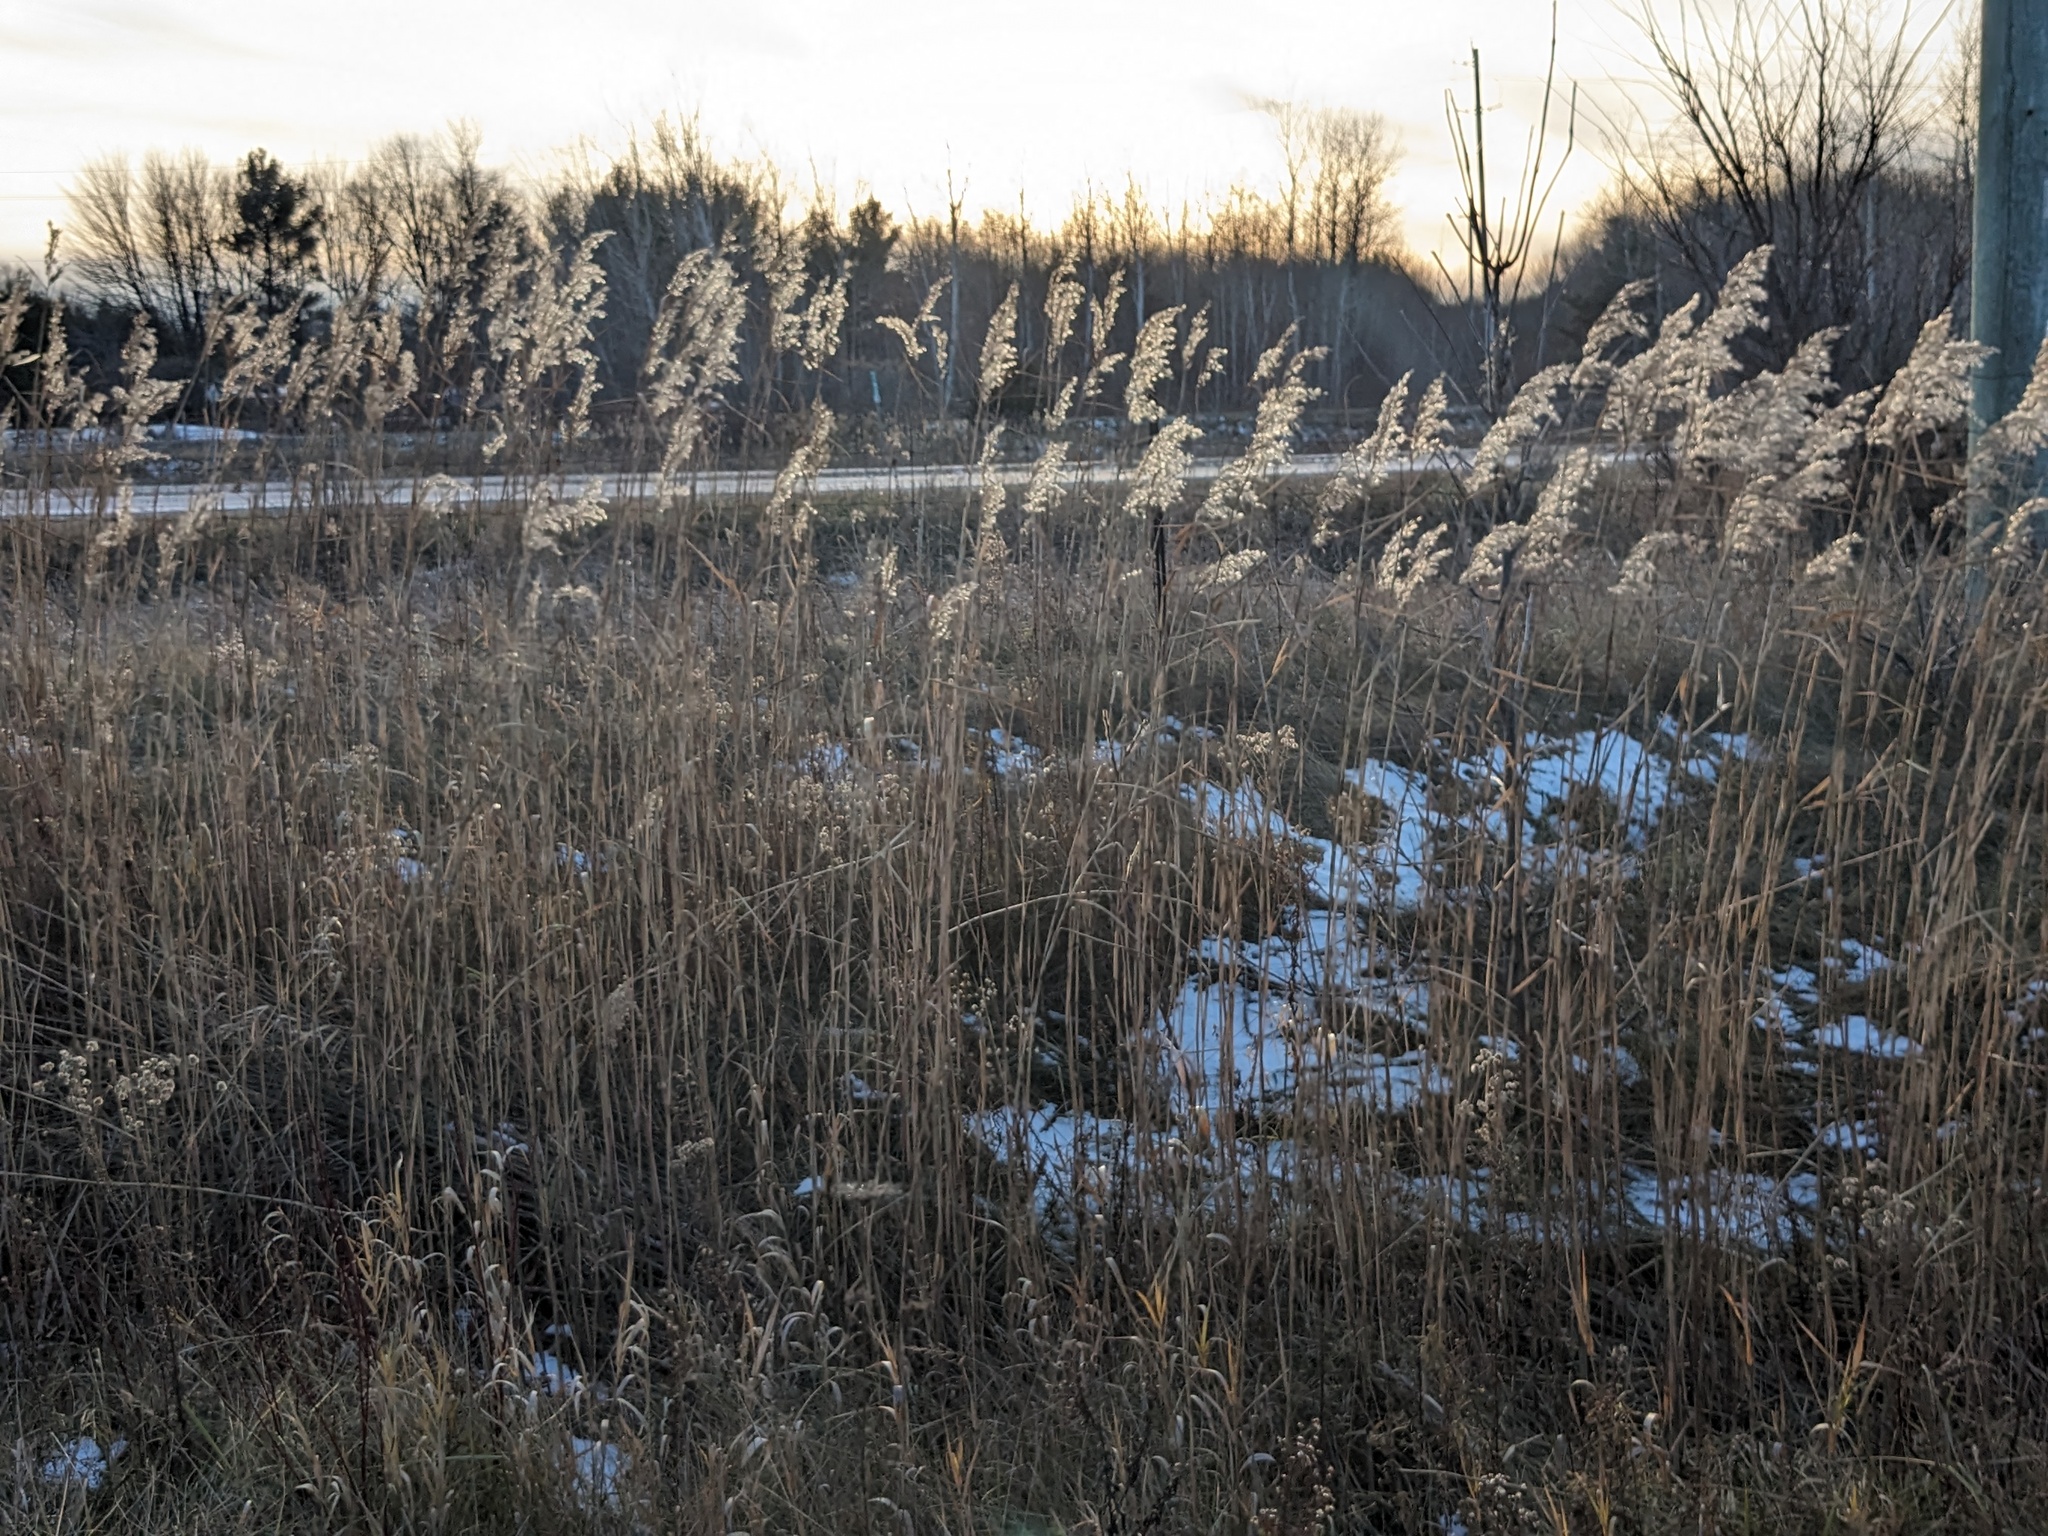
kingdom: Plantae
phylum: Tracheophyta
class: Liliopsida
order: Poales
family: Poaceae
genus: Phragmites
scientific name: Phragmites australis
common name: Common reed
